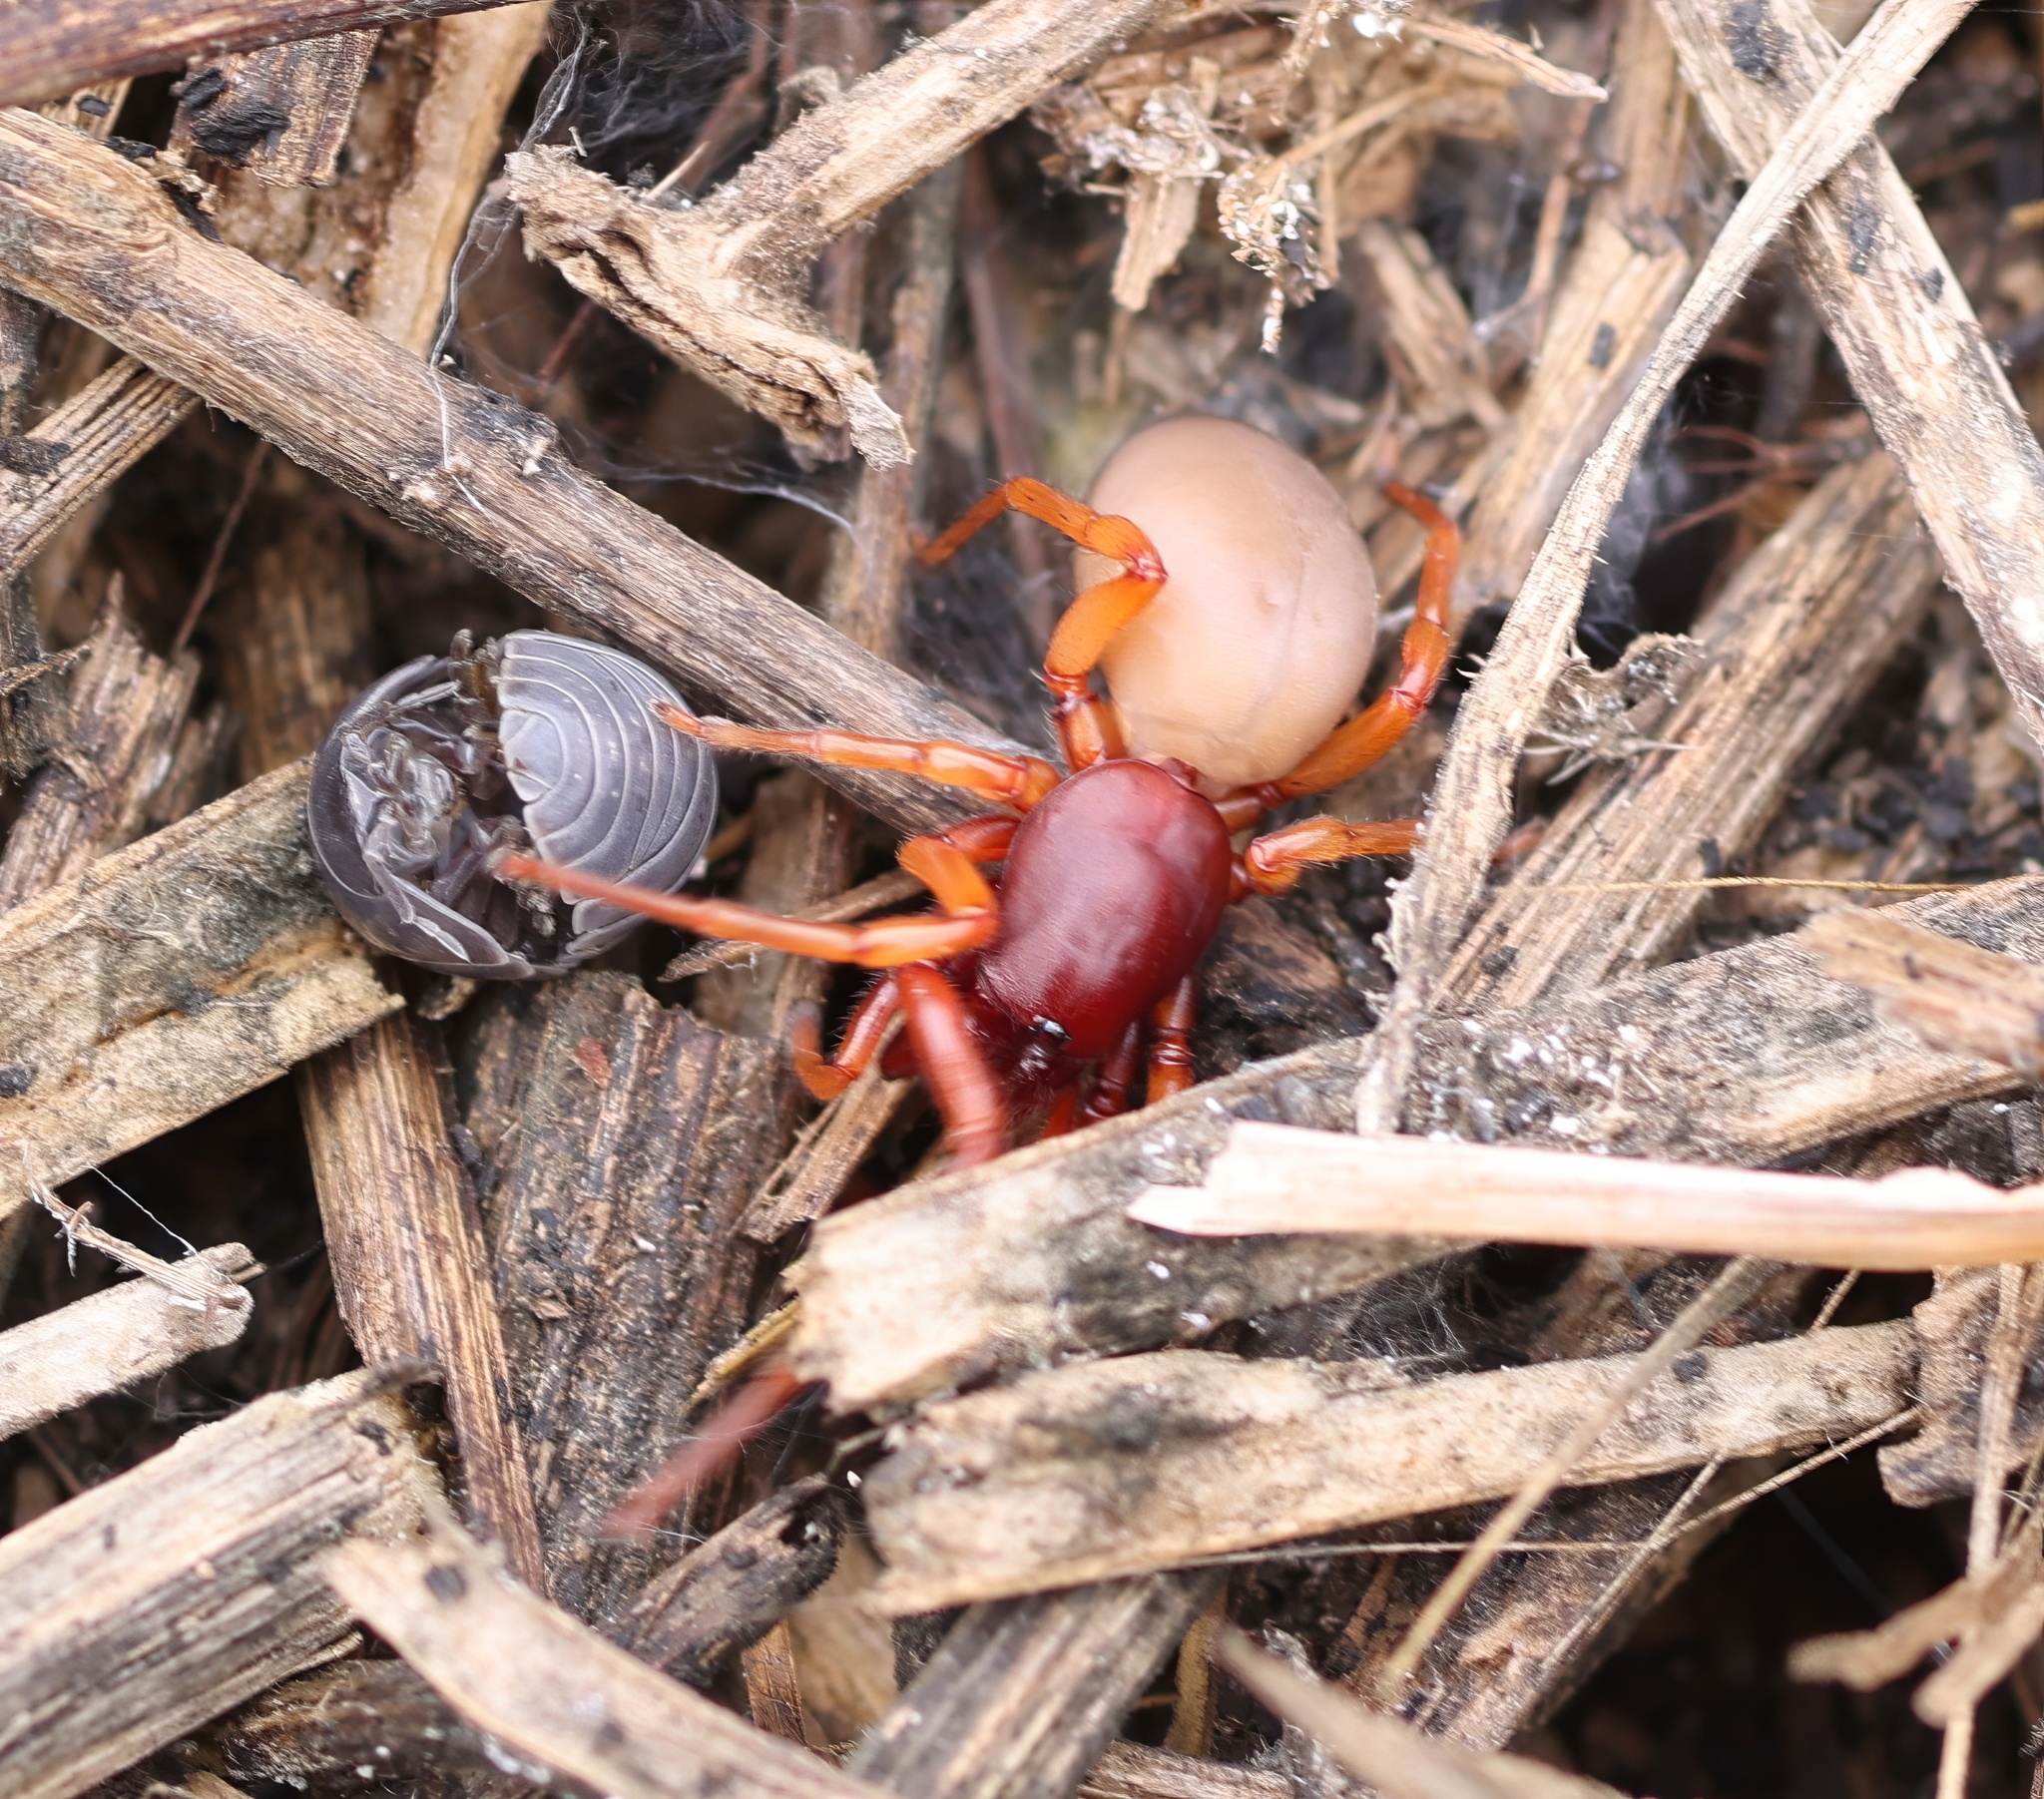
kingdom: Animalia
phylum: Arthropoda
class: Arachnida
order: Araneae
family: Dysderidae
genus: Dysdera
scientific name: Dysdera crocata
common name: Woodlouse spider
